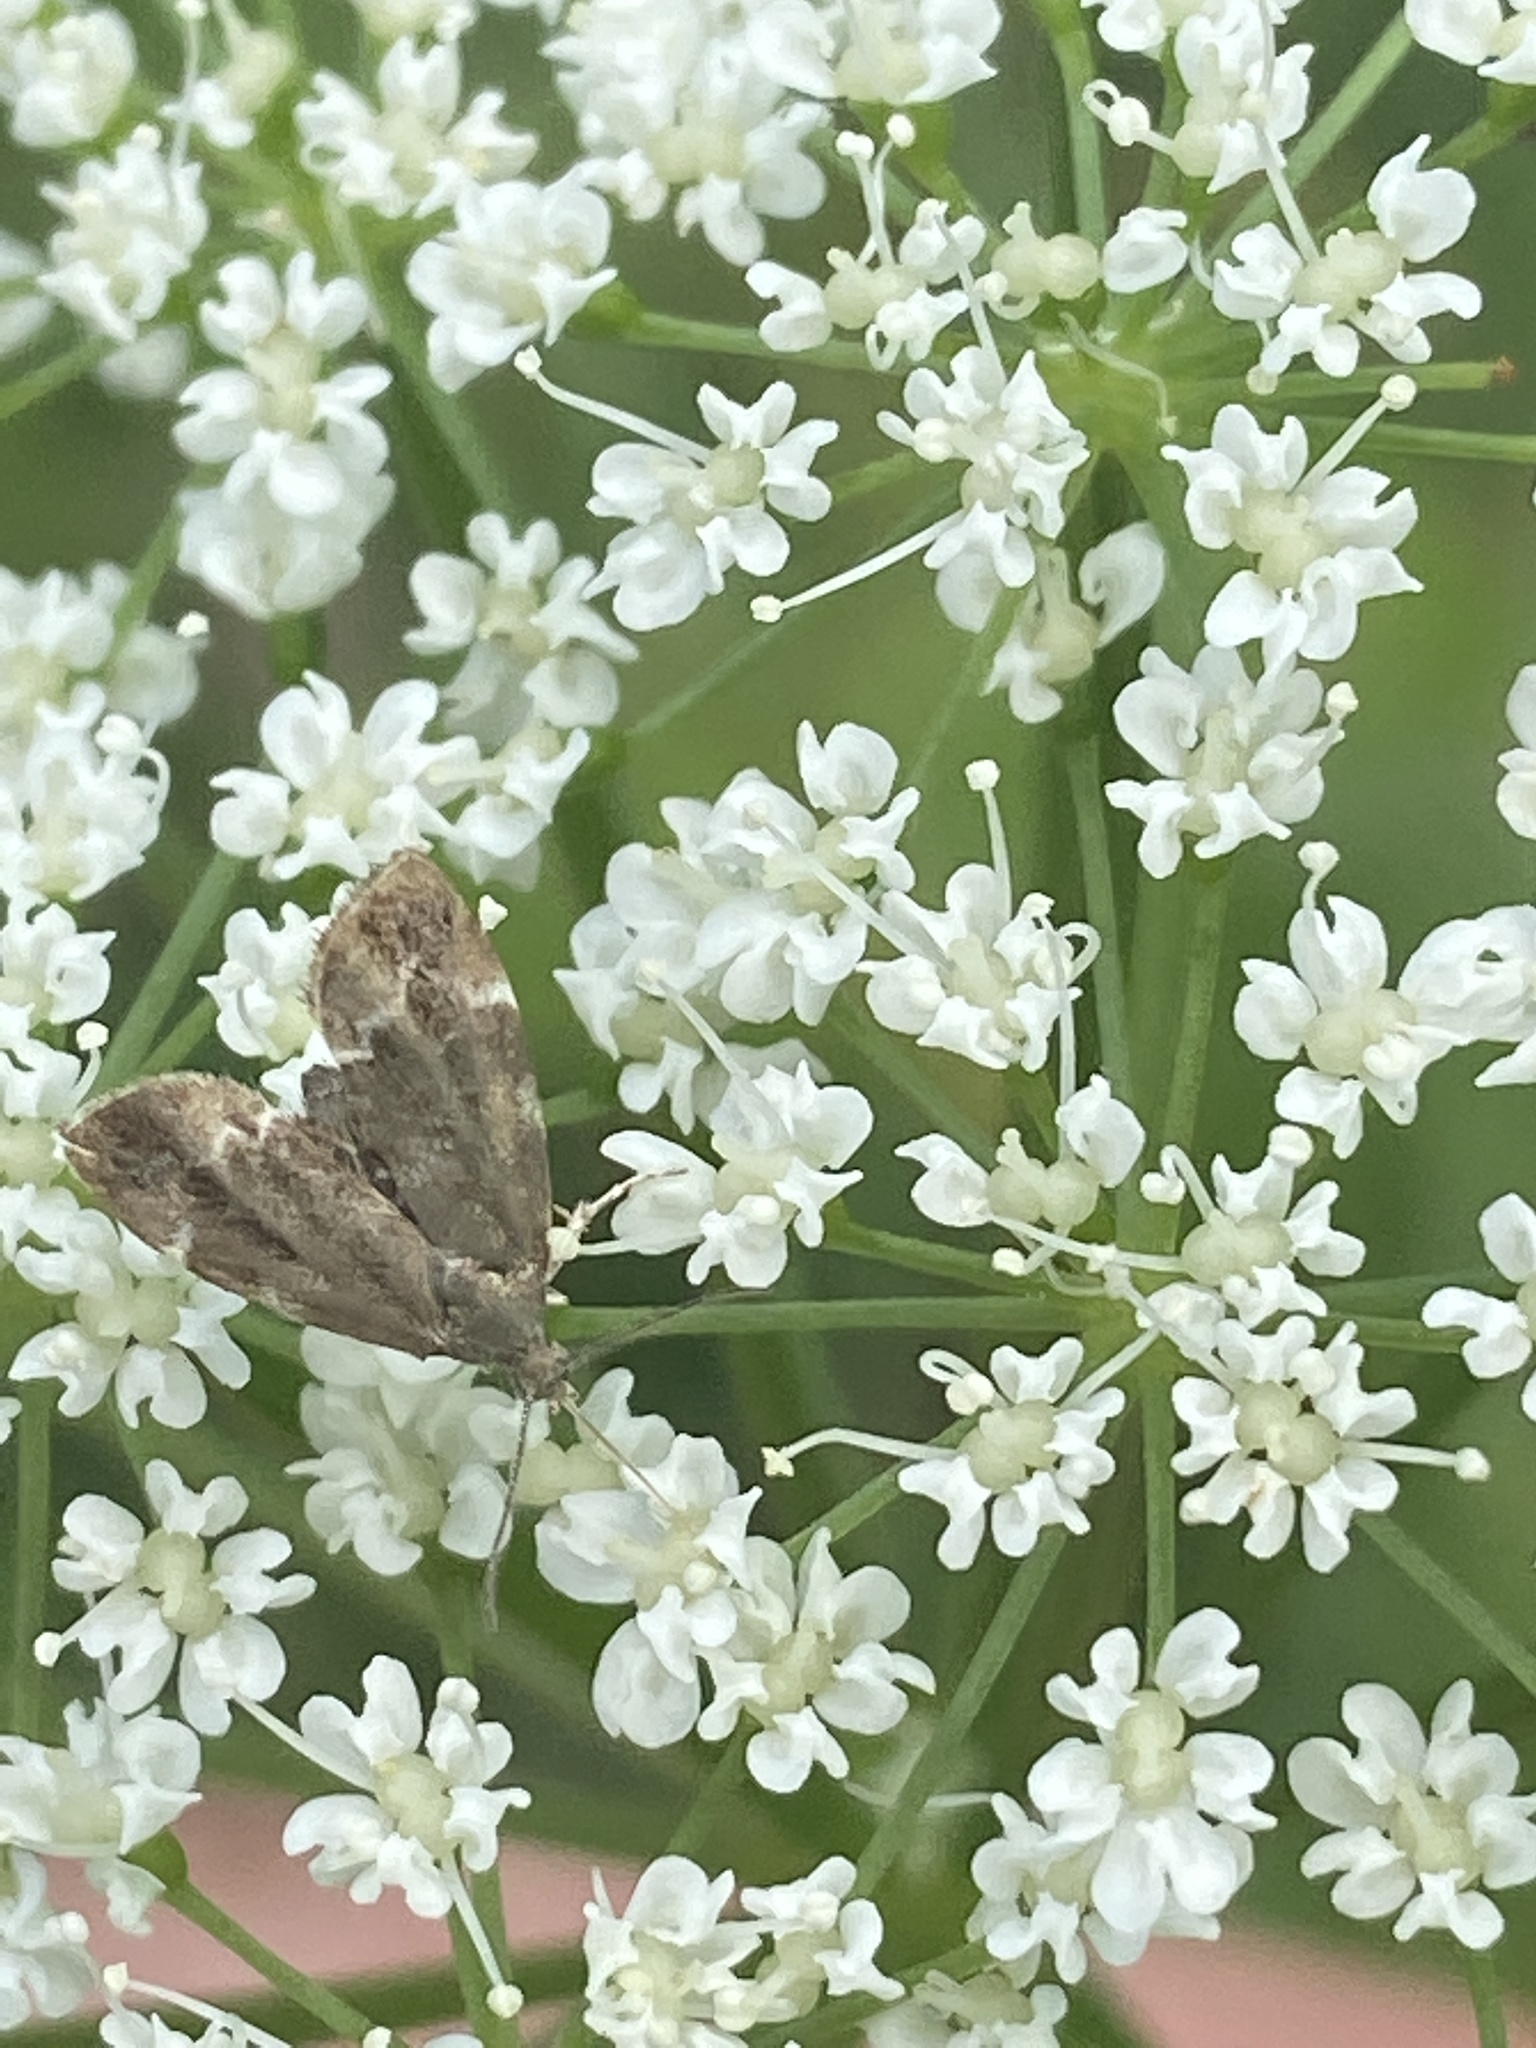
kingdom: Animalia
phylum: Arthropoda
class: Insecta
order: Lepidoptera
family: Choreutidae
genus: Anthophila
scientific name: Anthophila fabriciana
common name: Nettle-tap
